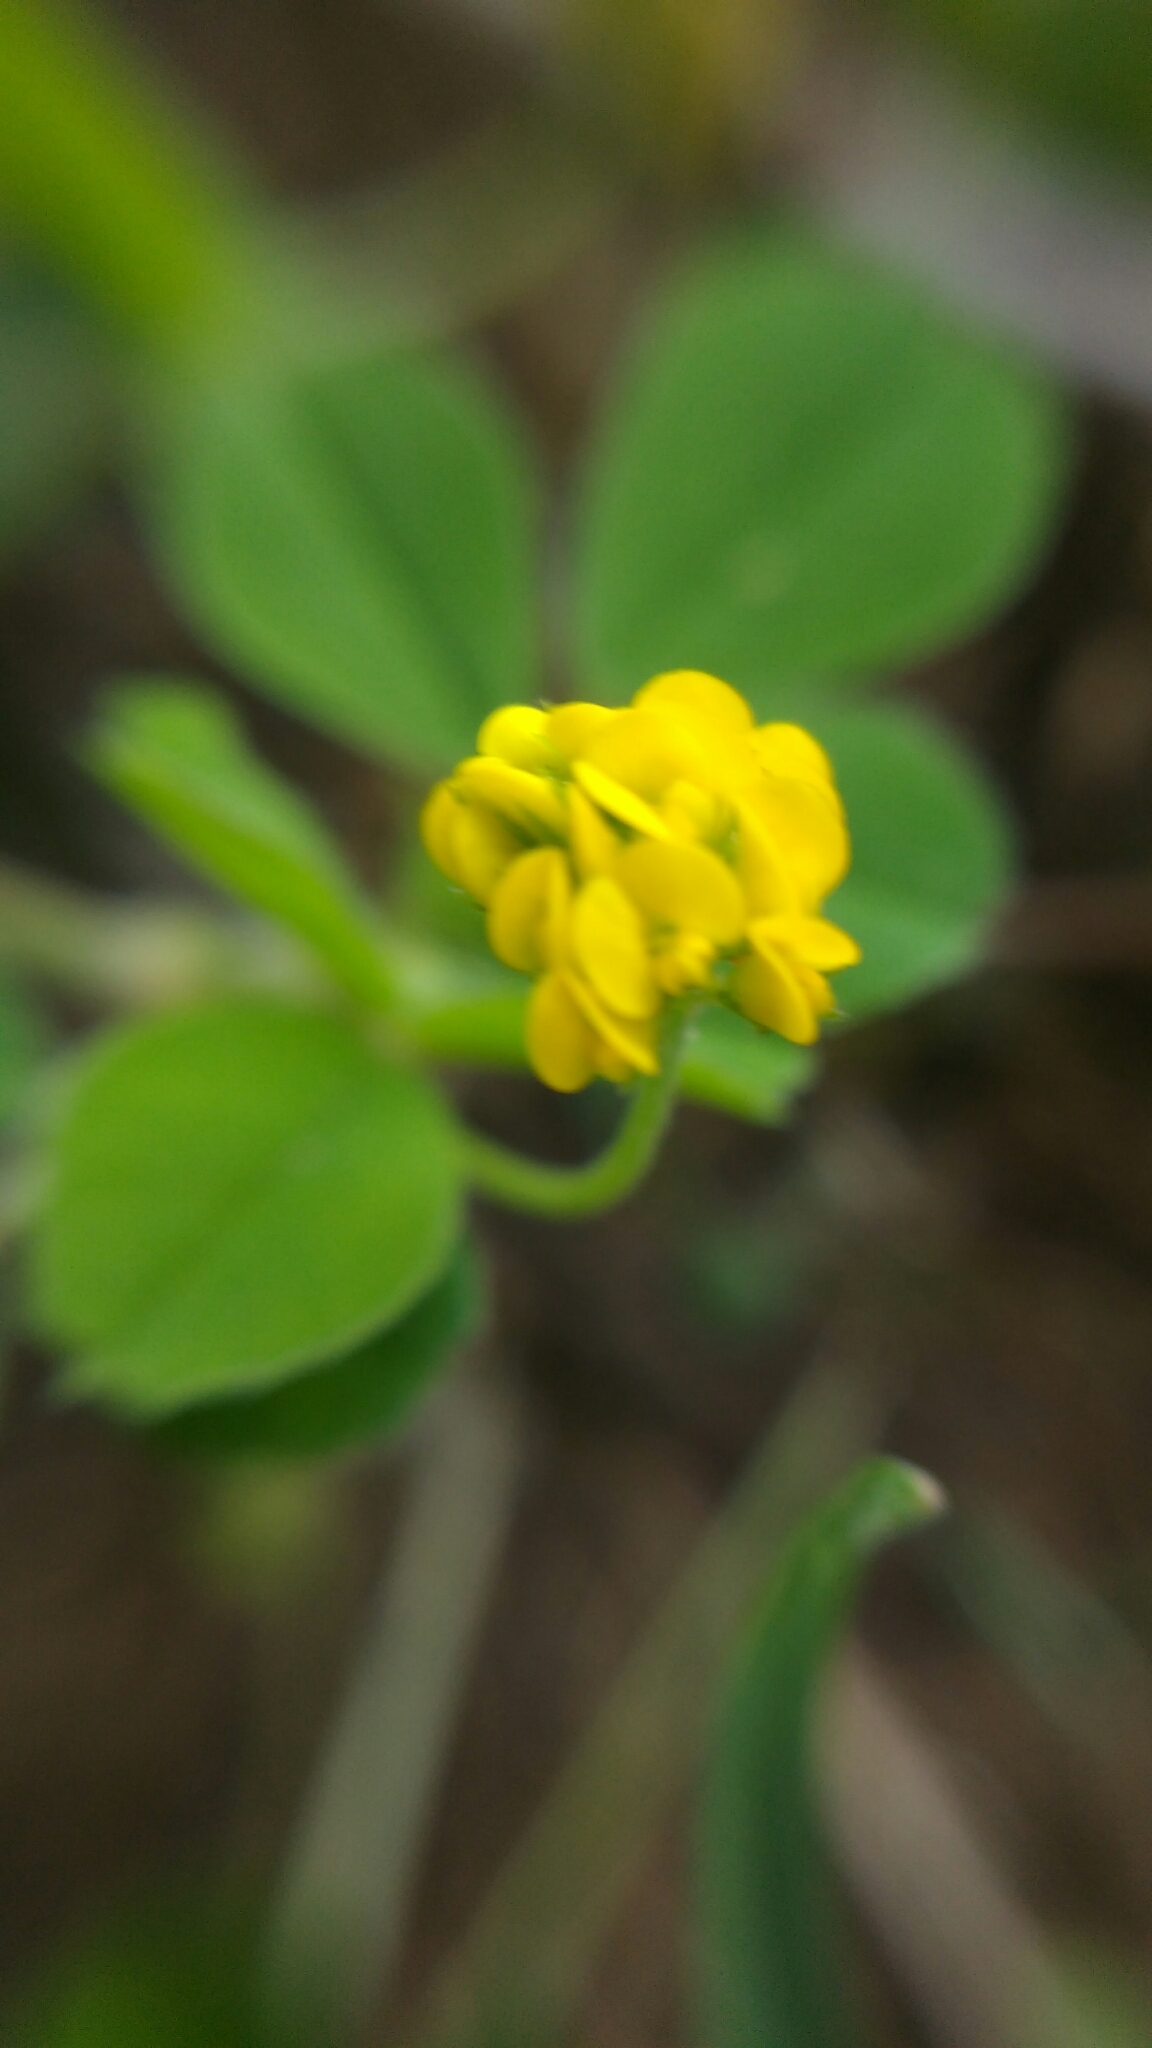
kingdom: Plantae
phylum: Tracheophyta
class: Magnoliopsida
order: Fabales
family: Fabaceae
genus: Medicago
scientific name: Medicago lupulina
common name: Black medick
